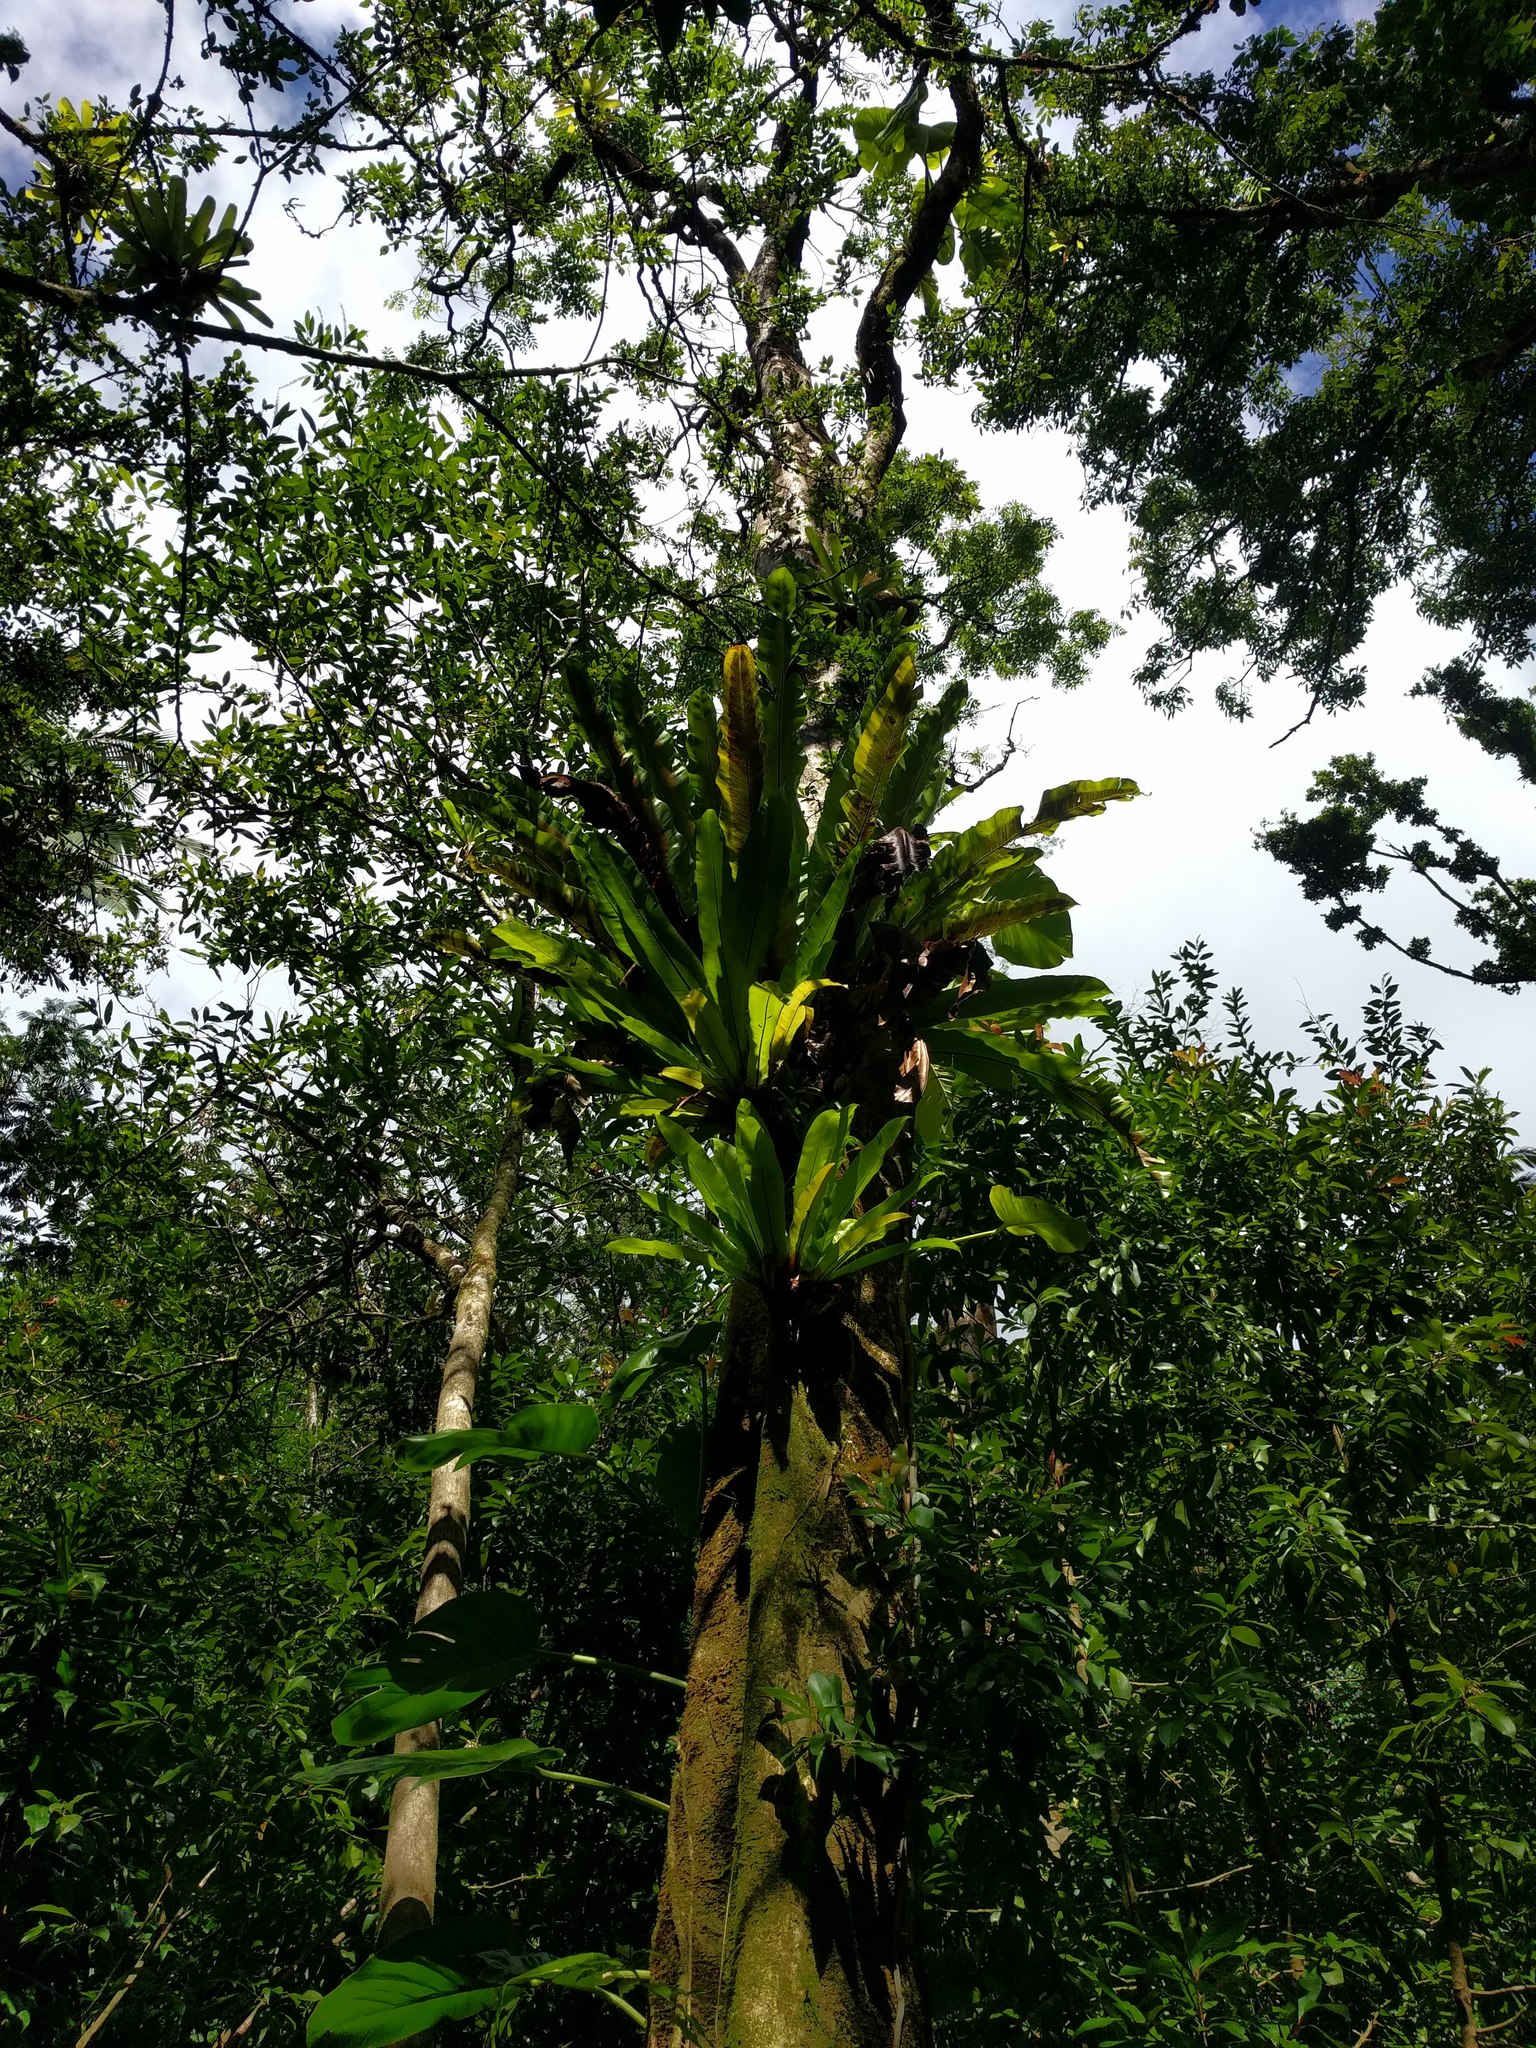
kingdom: Plantae
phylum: Tracheophyta
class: Polypodiopsida
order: Polypodiales
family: Aspleniaceae
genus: Asplenium
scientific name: Asplenium nidus
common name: Bird's-nest fern
